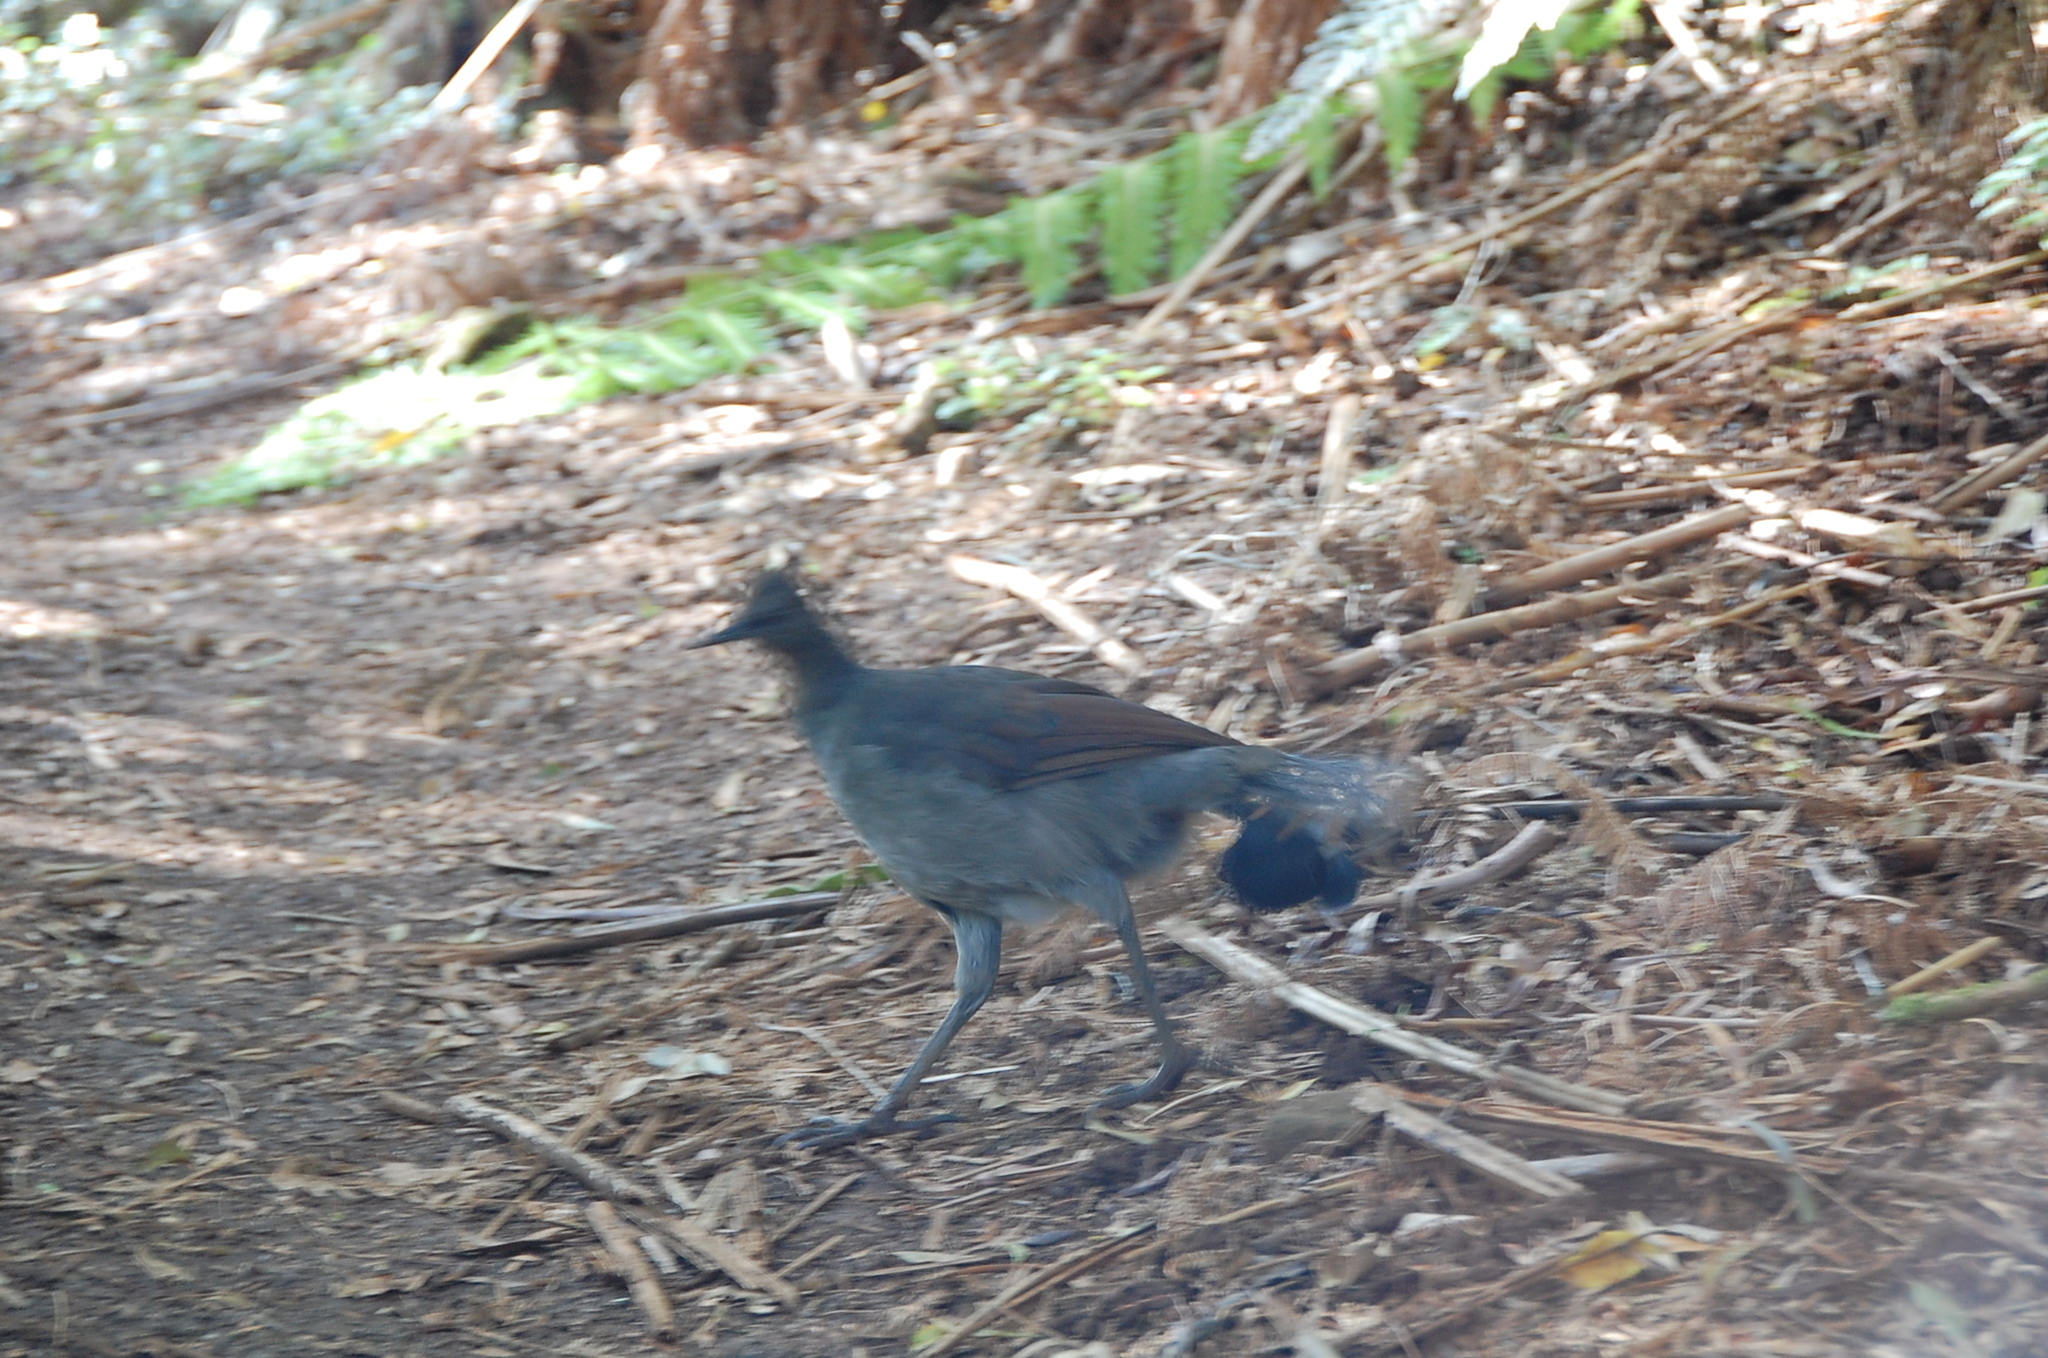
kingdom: Animalia
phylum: Chordata
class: Aves
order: Passeriformes
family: Menuridae
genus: Menura
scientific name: Menura novaehollandiae
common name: Superb lyrebird
